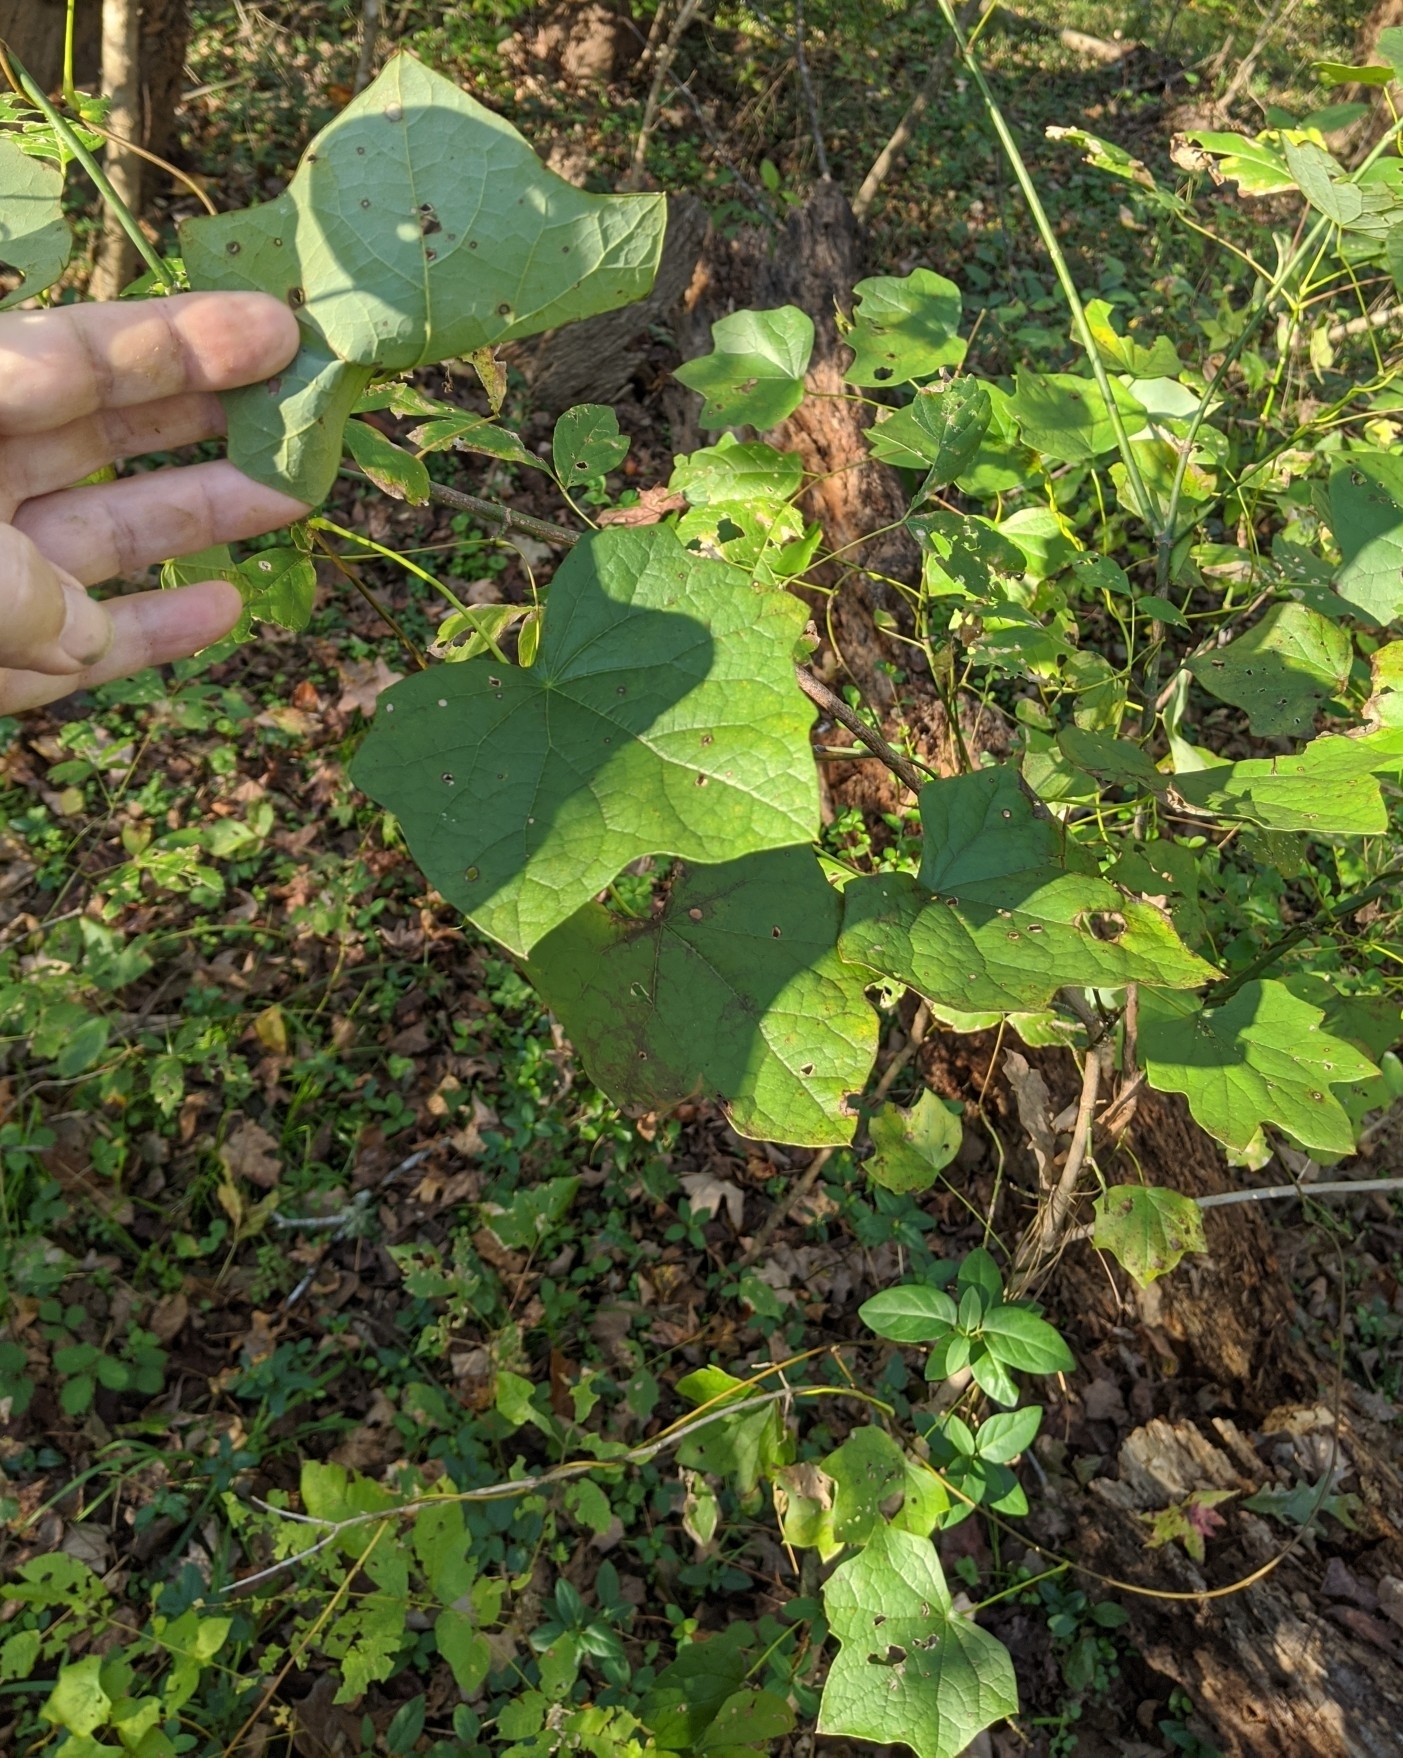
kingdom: Plantae
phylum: Tracheophyta
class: Magnoliopsida
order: Ranunculales
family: Menispermaceae
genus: Menispermum
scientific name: Menispermum canadense
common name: Moonseed
